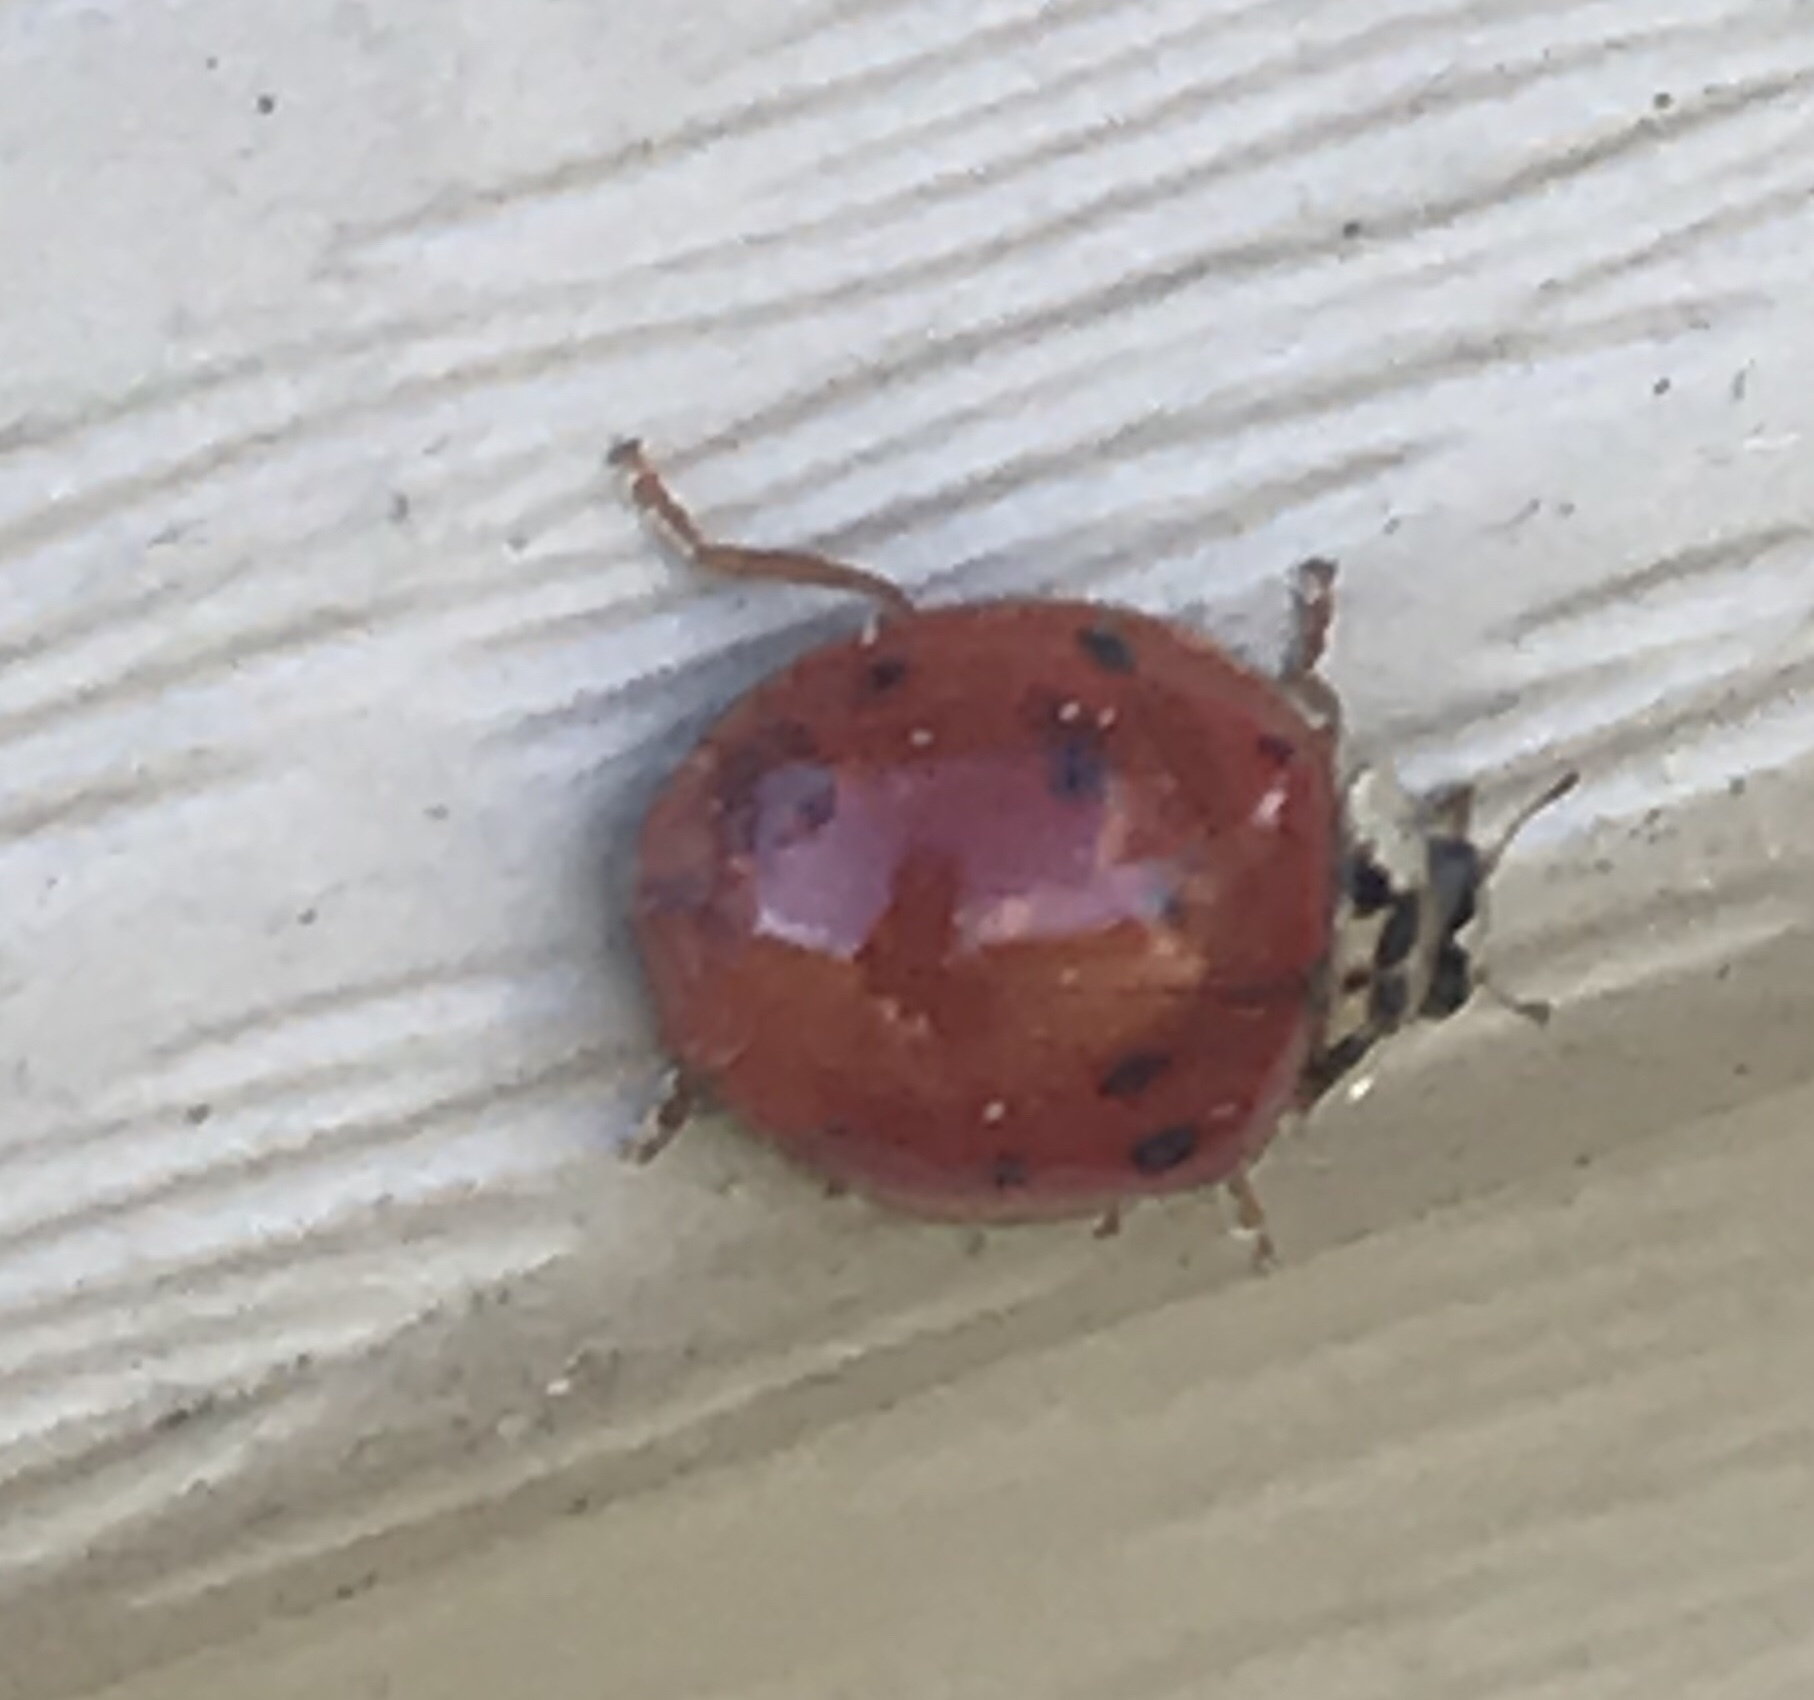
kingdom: Animalia
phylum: Arthropoda
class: Insecta
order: Coleoptera
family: Coccinellidae
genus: Harmonia
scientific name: Harmonia axyridis
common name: Harlequin ladybird
